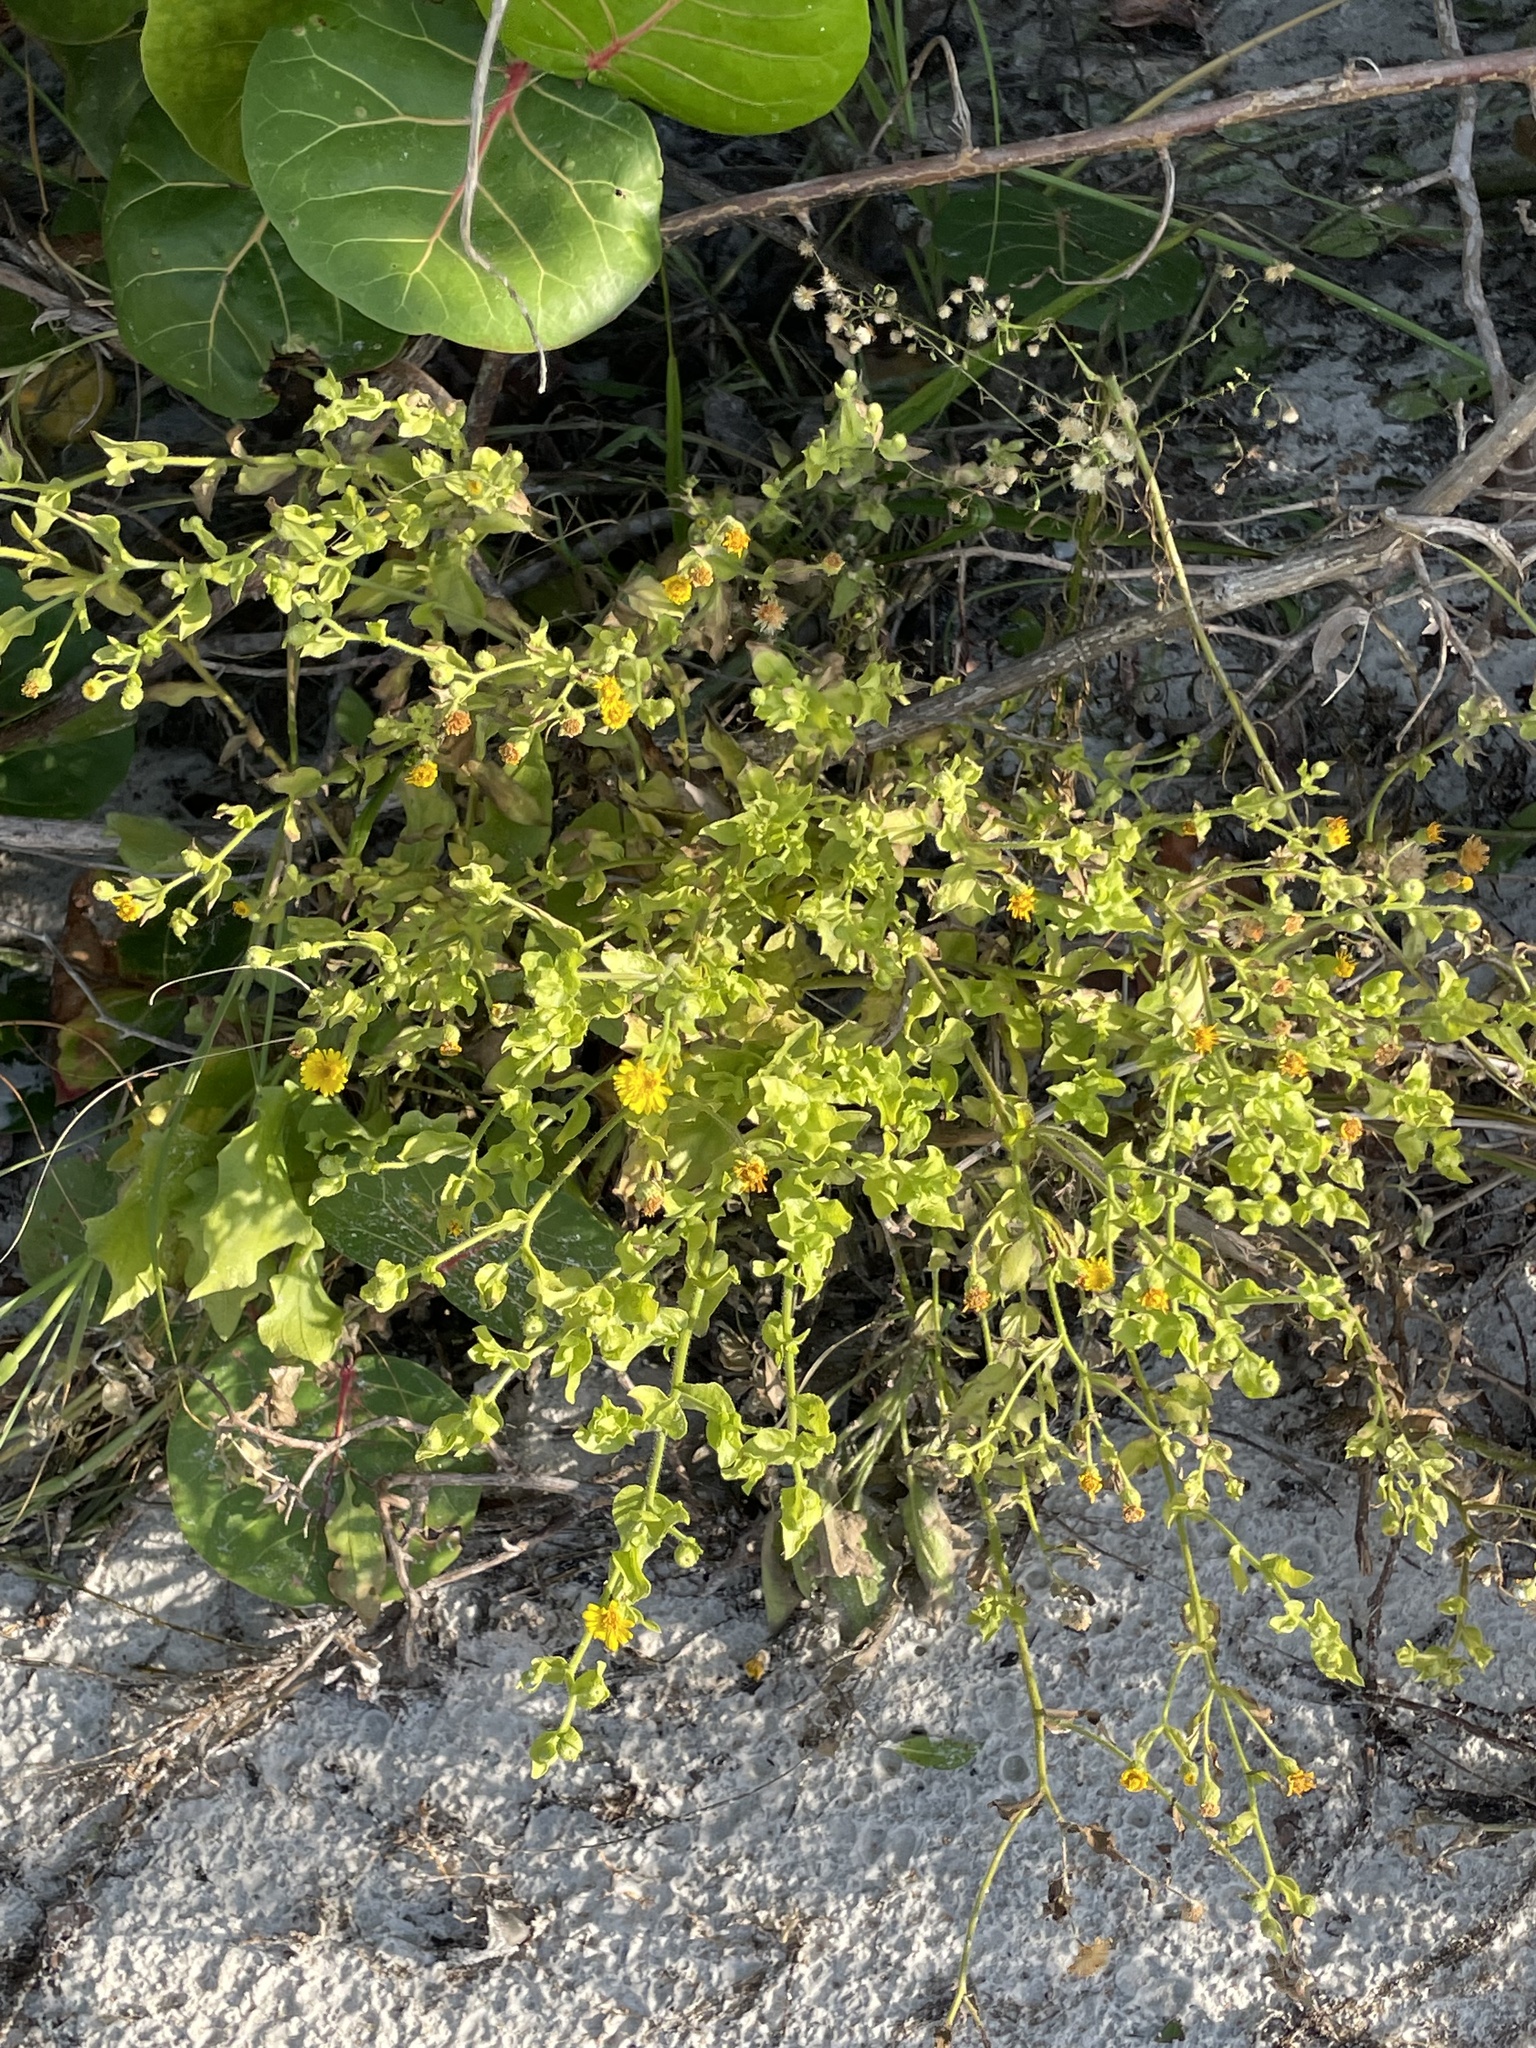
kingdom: Plantae
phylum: Tracheophyta
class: Magnoliopsida
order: Asterales
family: Asteraceae
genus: Heterotheca
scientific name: Heterotheca subaxillaris
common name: Camphorweed
